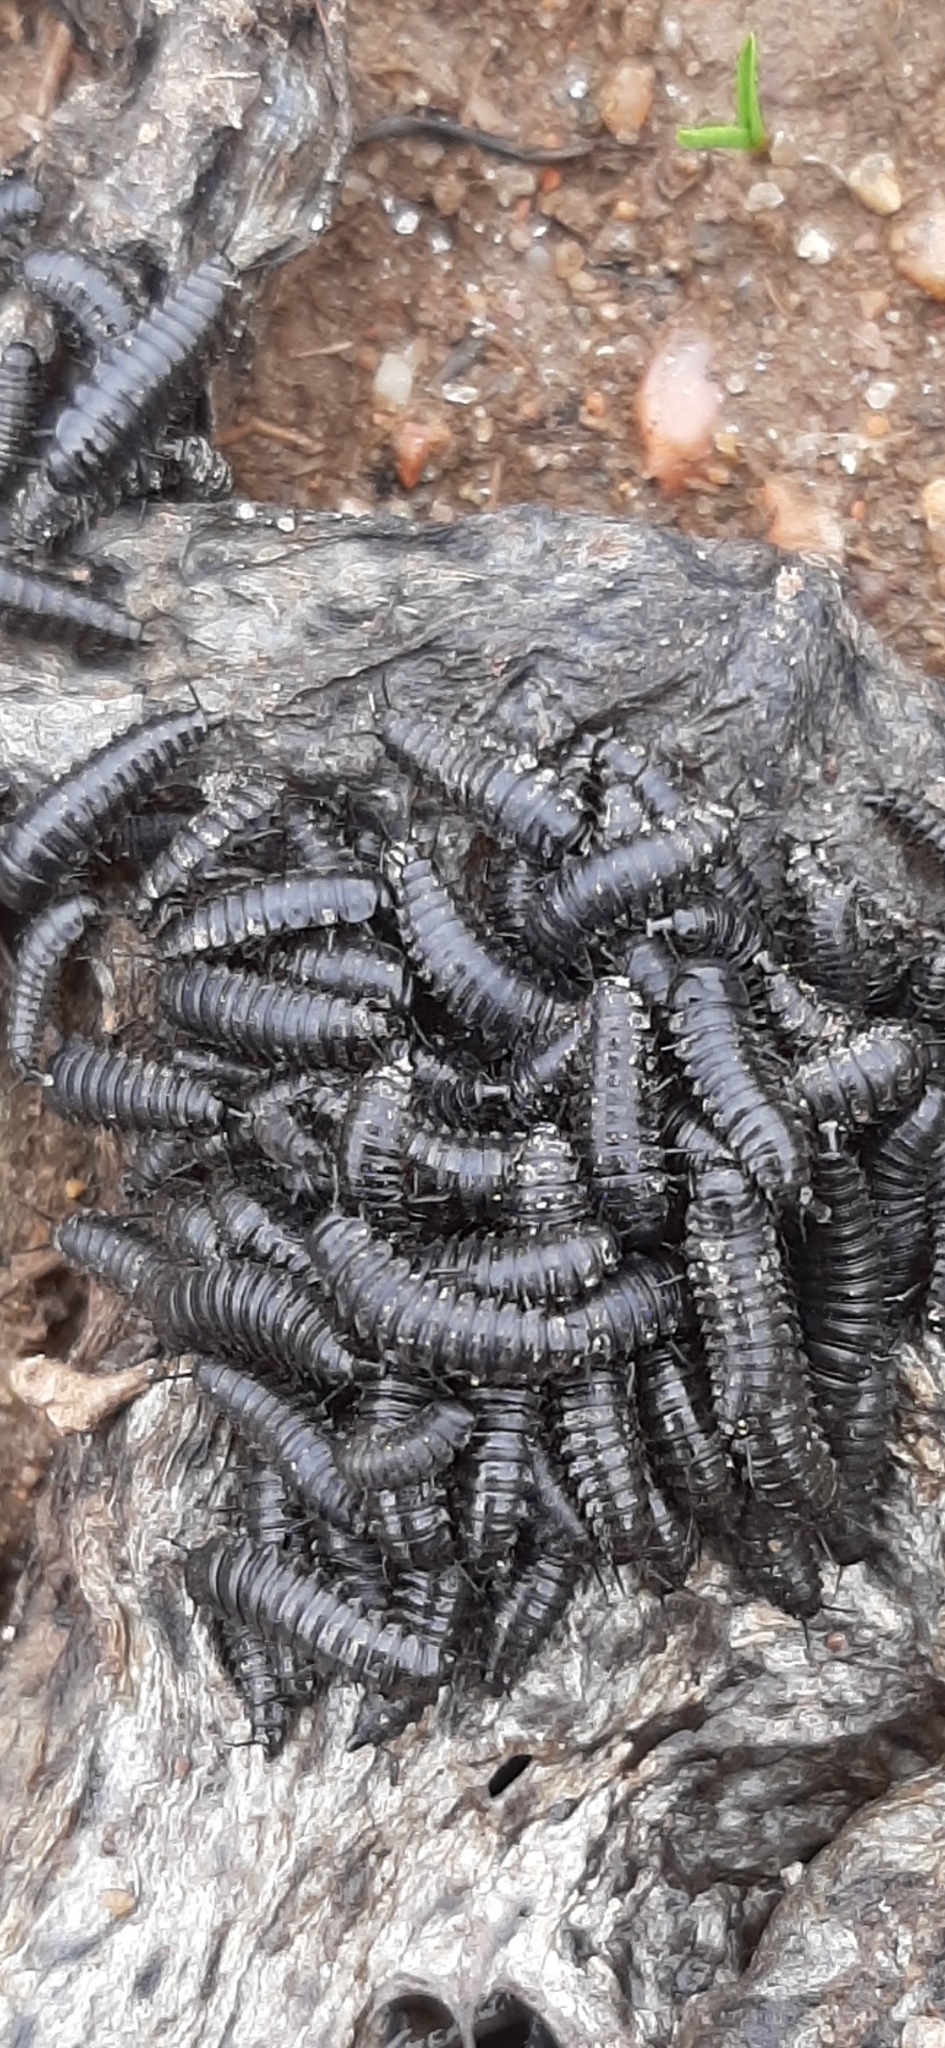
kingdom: Animalia
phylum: Arthropoda
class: Insecta
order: Coleoptera
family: Staphylinidae
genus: Thanatophilus
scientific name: Thanatophilus rugosus
